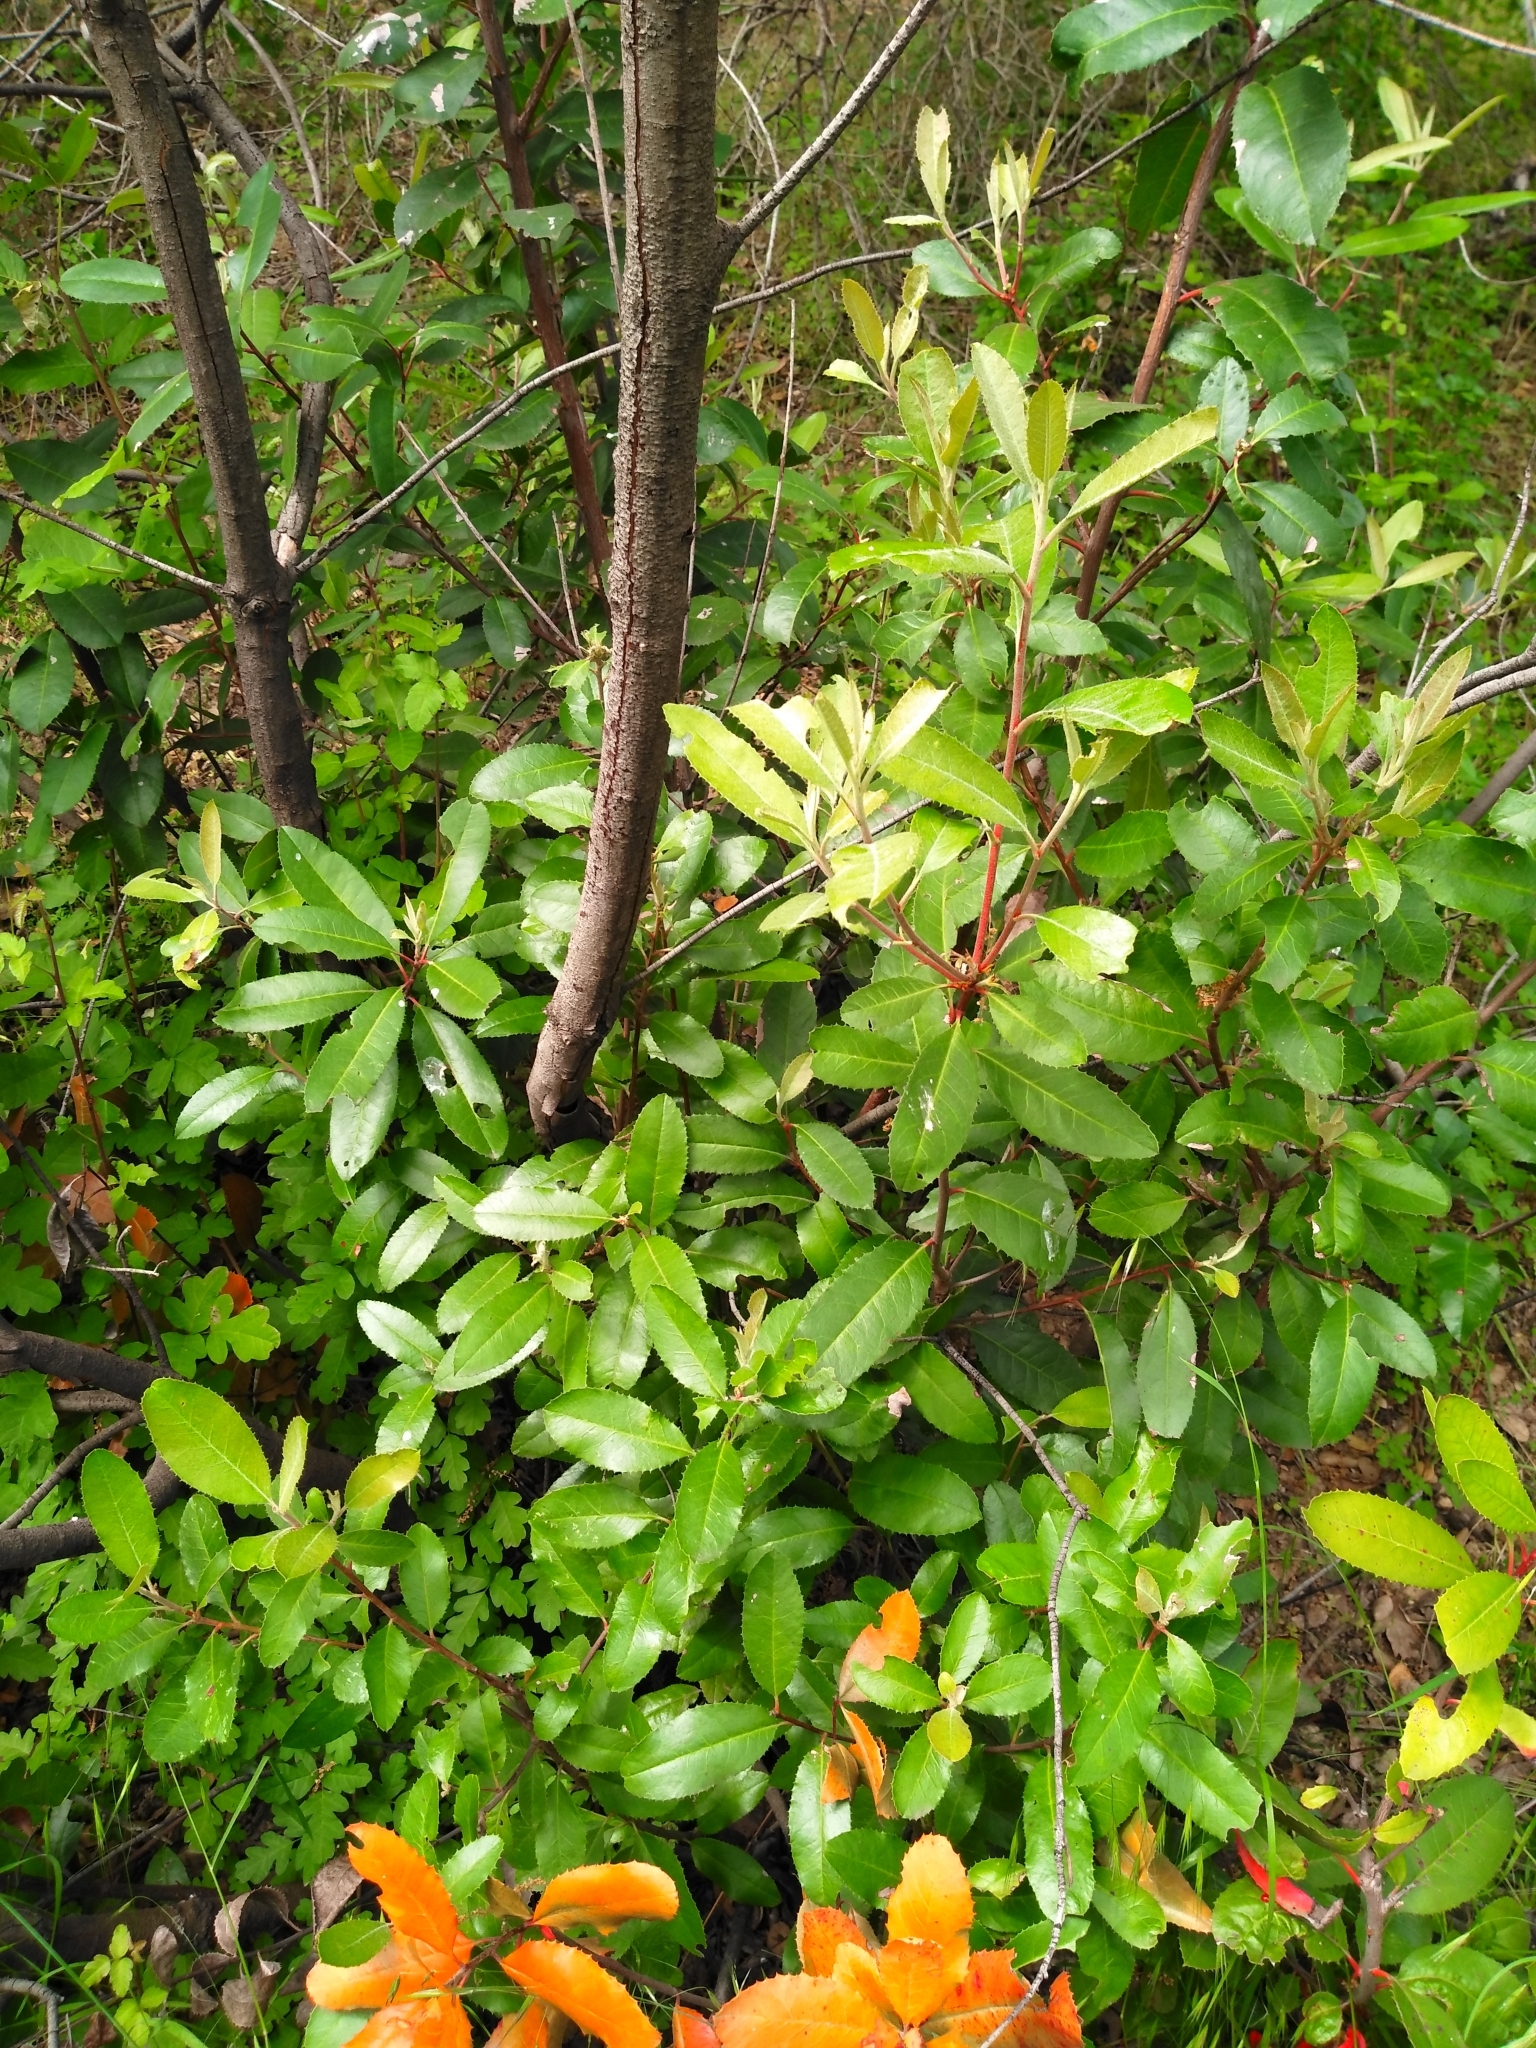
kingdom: Plantae
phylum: Tracheophyta
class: Magnoliopsida
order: Rosales
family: Rosaceae
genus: Heteromeles
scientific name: Heteromeles arbutifolia
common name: California-holly
